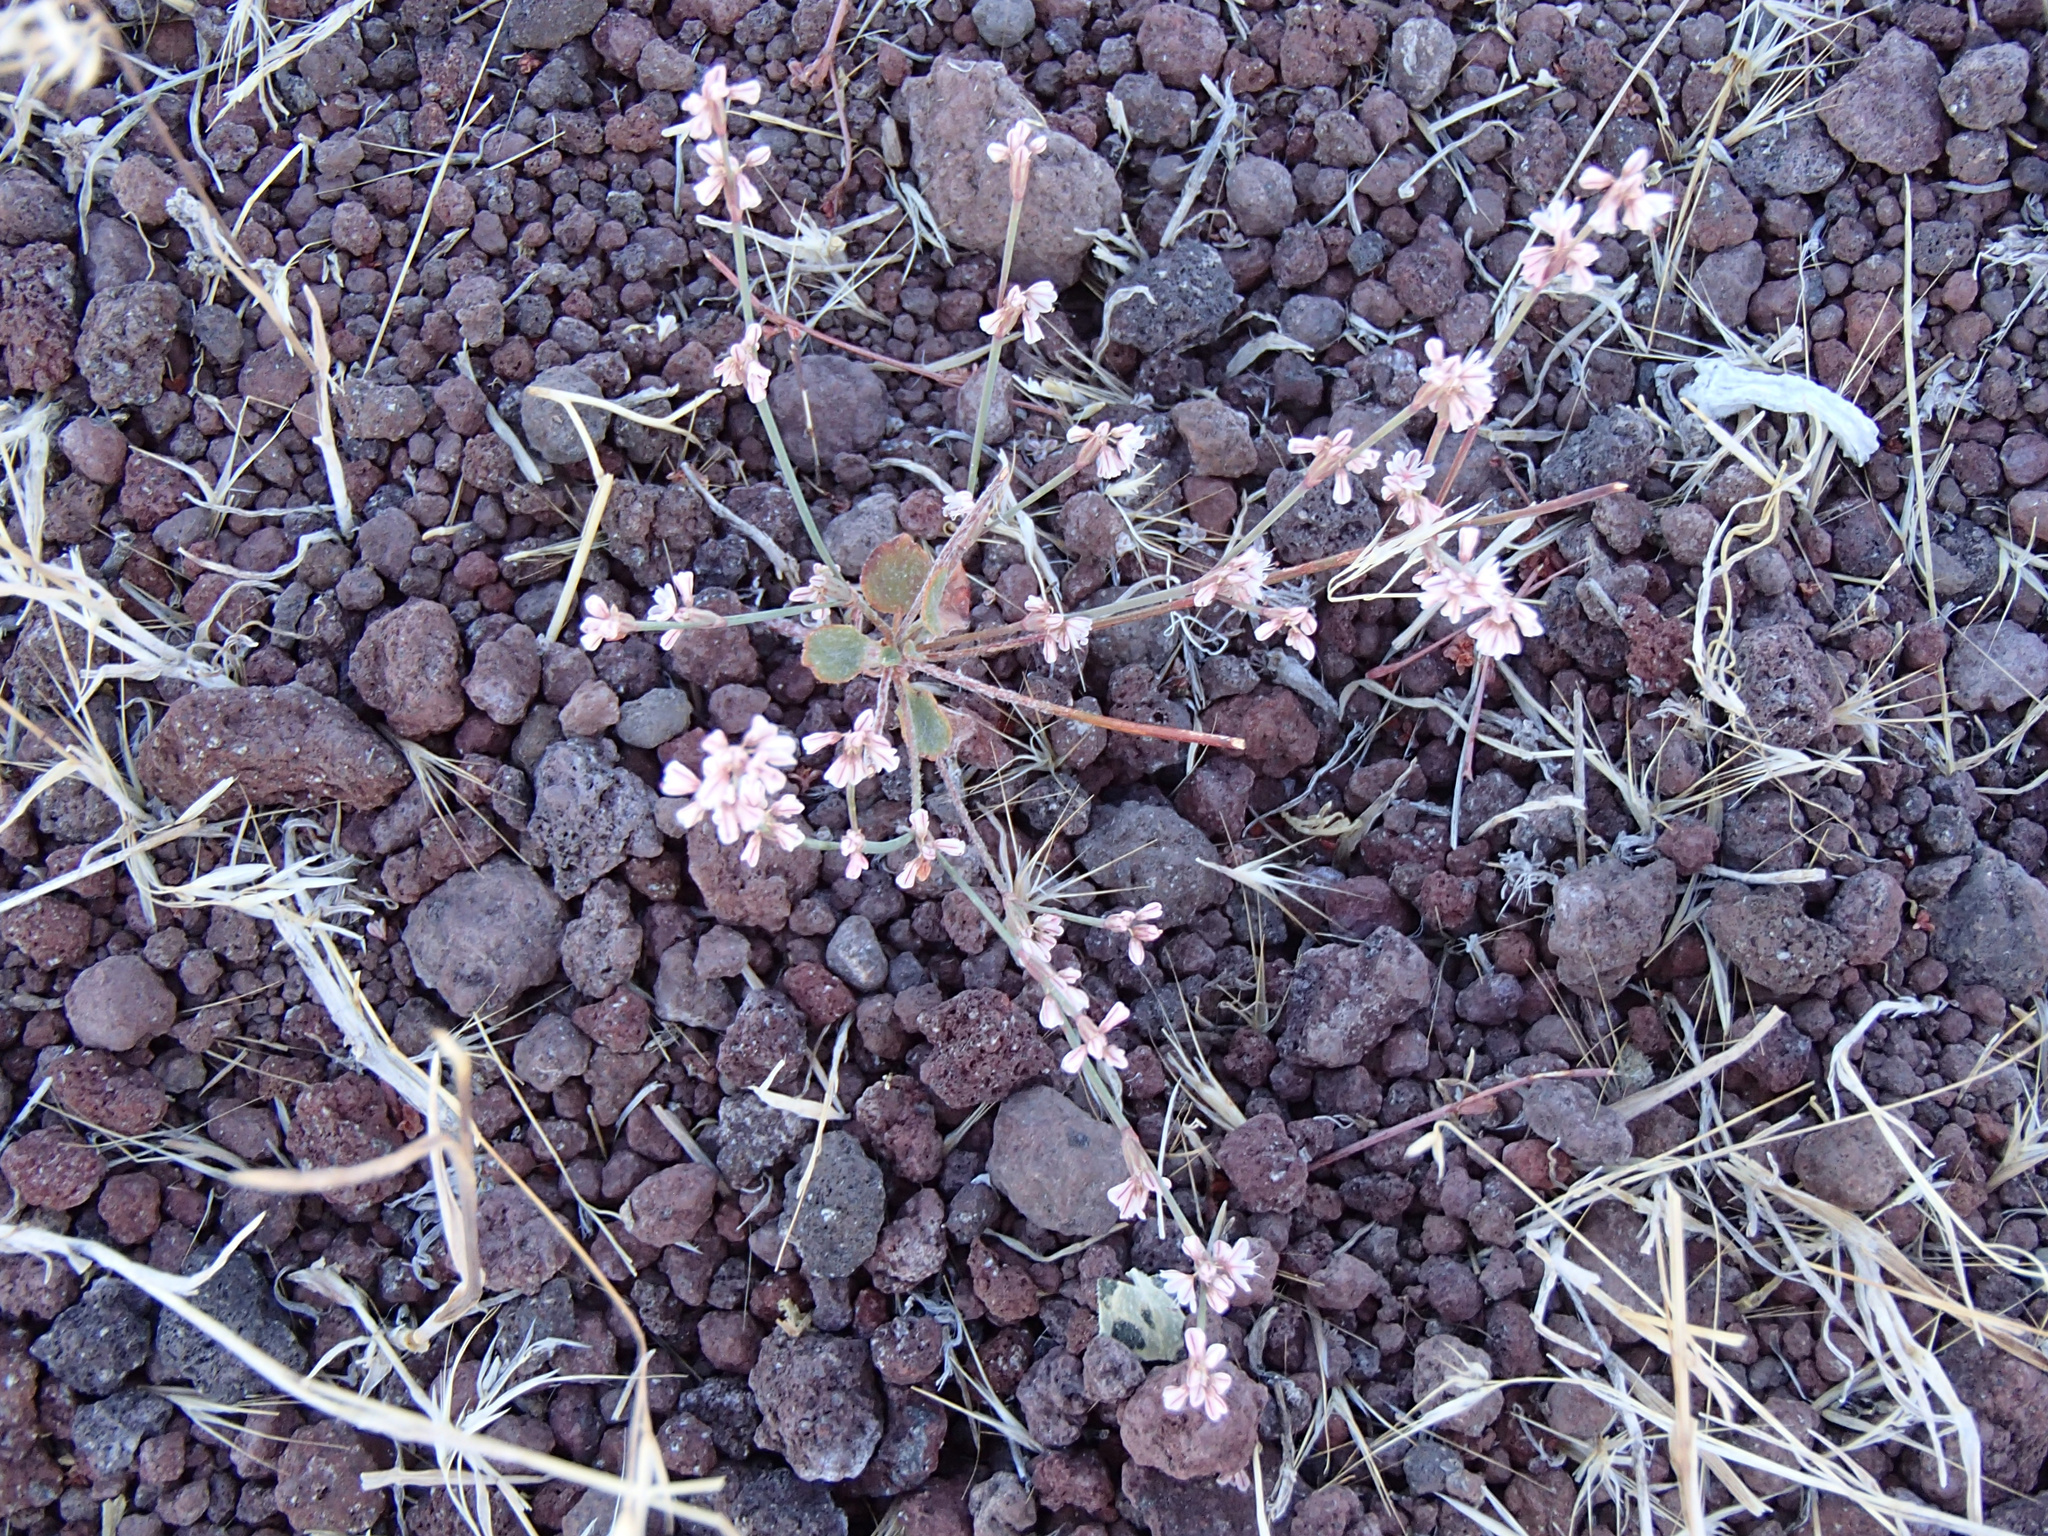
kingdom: Plantae
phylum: Tracheophyta
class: Magnoliopsida
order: Caryophyllales
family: Polygonaceae
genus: Eriogonum
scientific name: Eriogonum vimineum
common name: Wicker buckwheat
